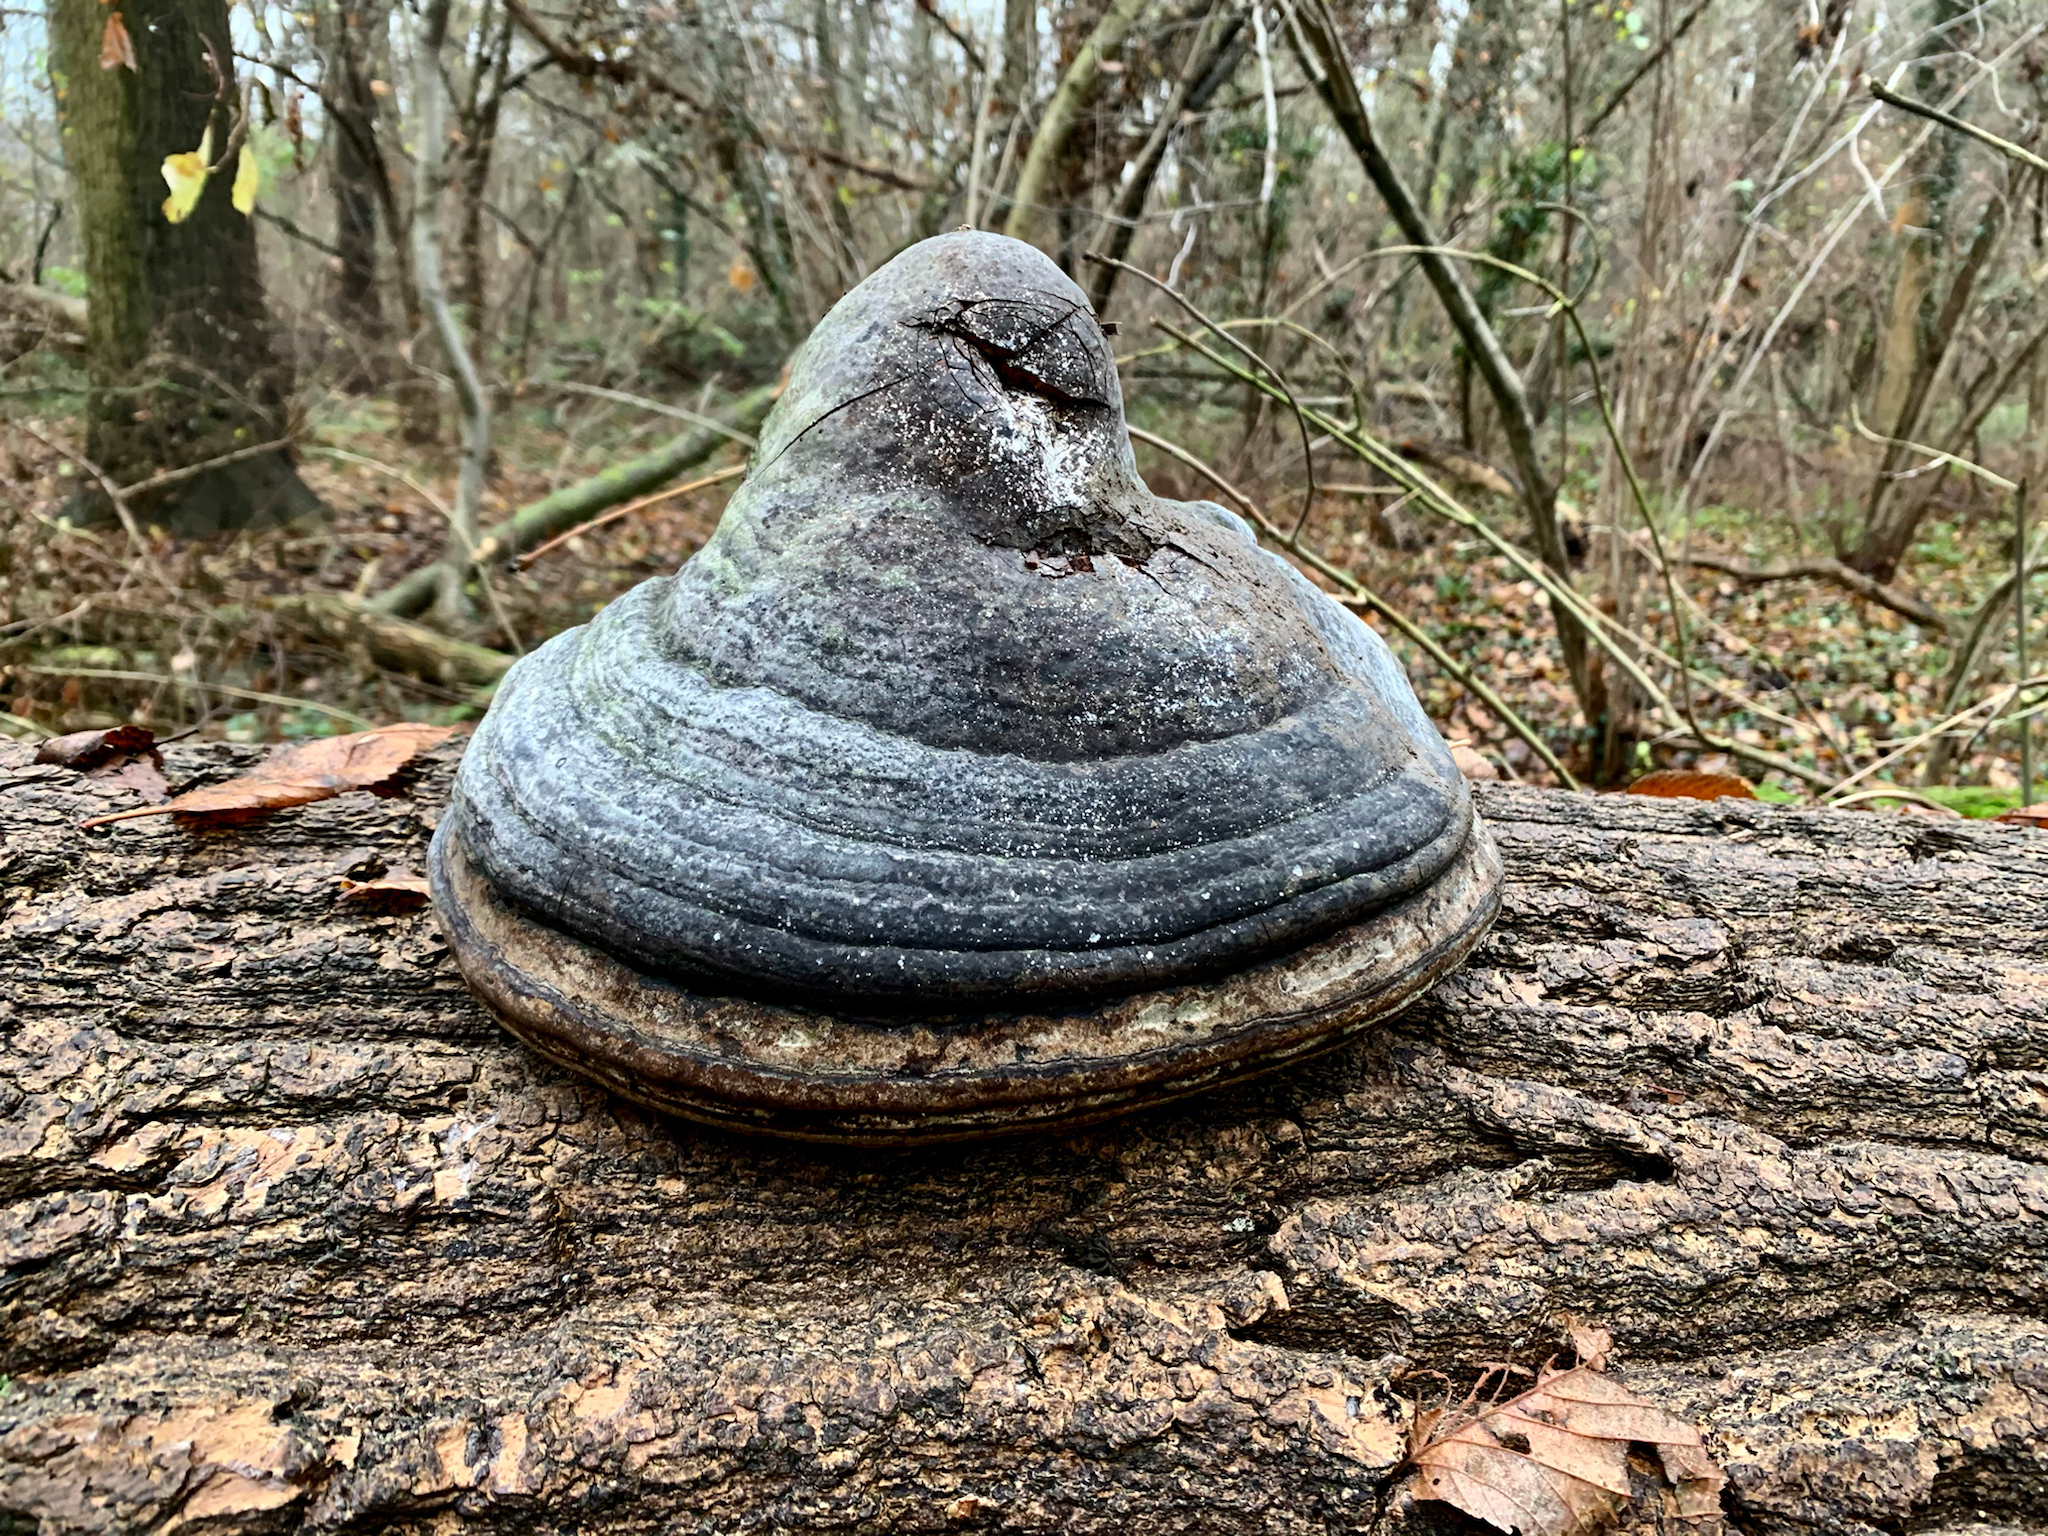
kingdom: Fungi
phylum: Basidiomycota
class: Agaricomycetes
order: Polyporales
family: Polyporaceae
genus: Fomes
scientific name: Fomes fomentarius
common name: Hoof fungus
